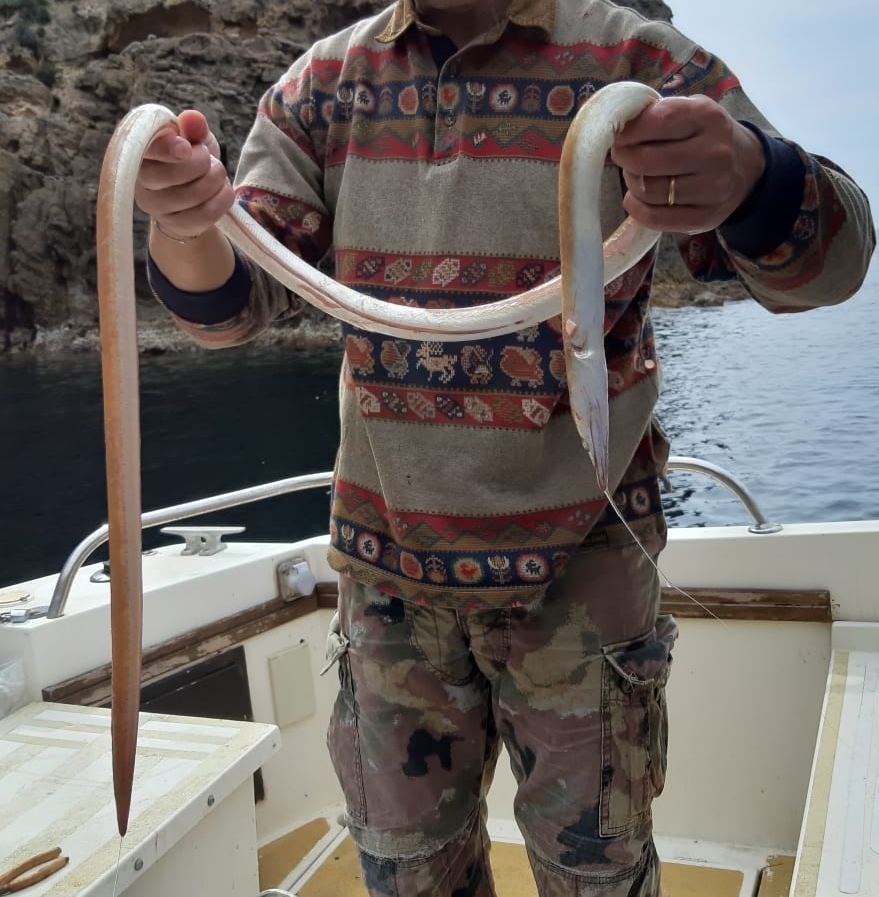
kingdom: Animalia
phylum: Chordata
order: Anguilliformes
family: Ophichthidae
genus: Ophisurus
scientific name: Ophisurus serpens
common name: Serpent eel
